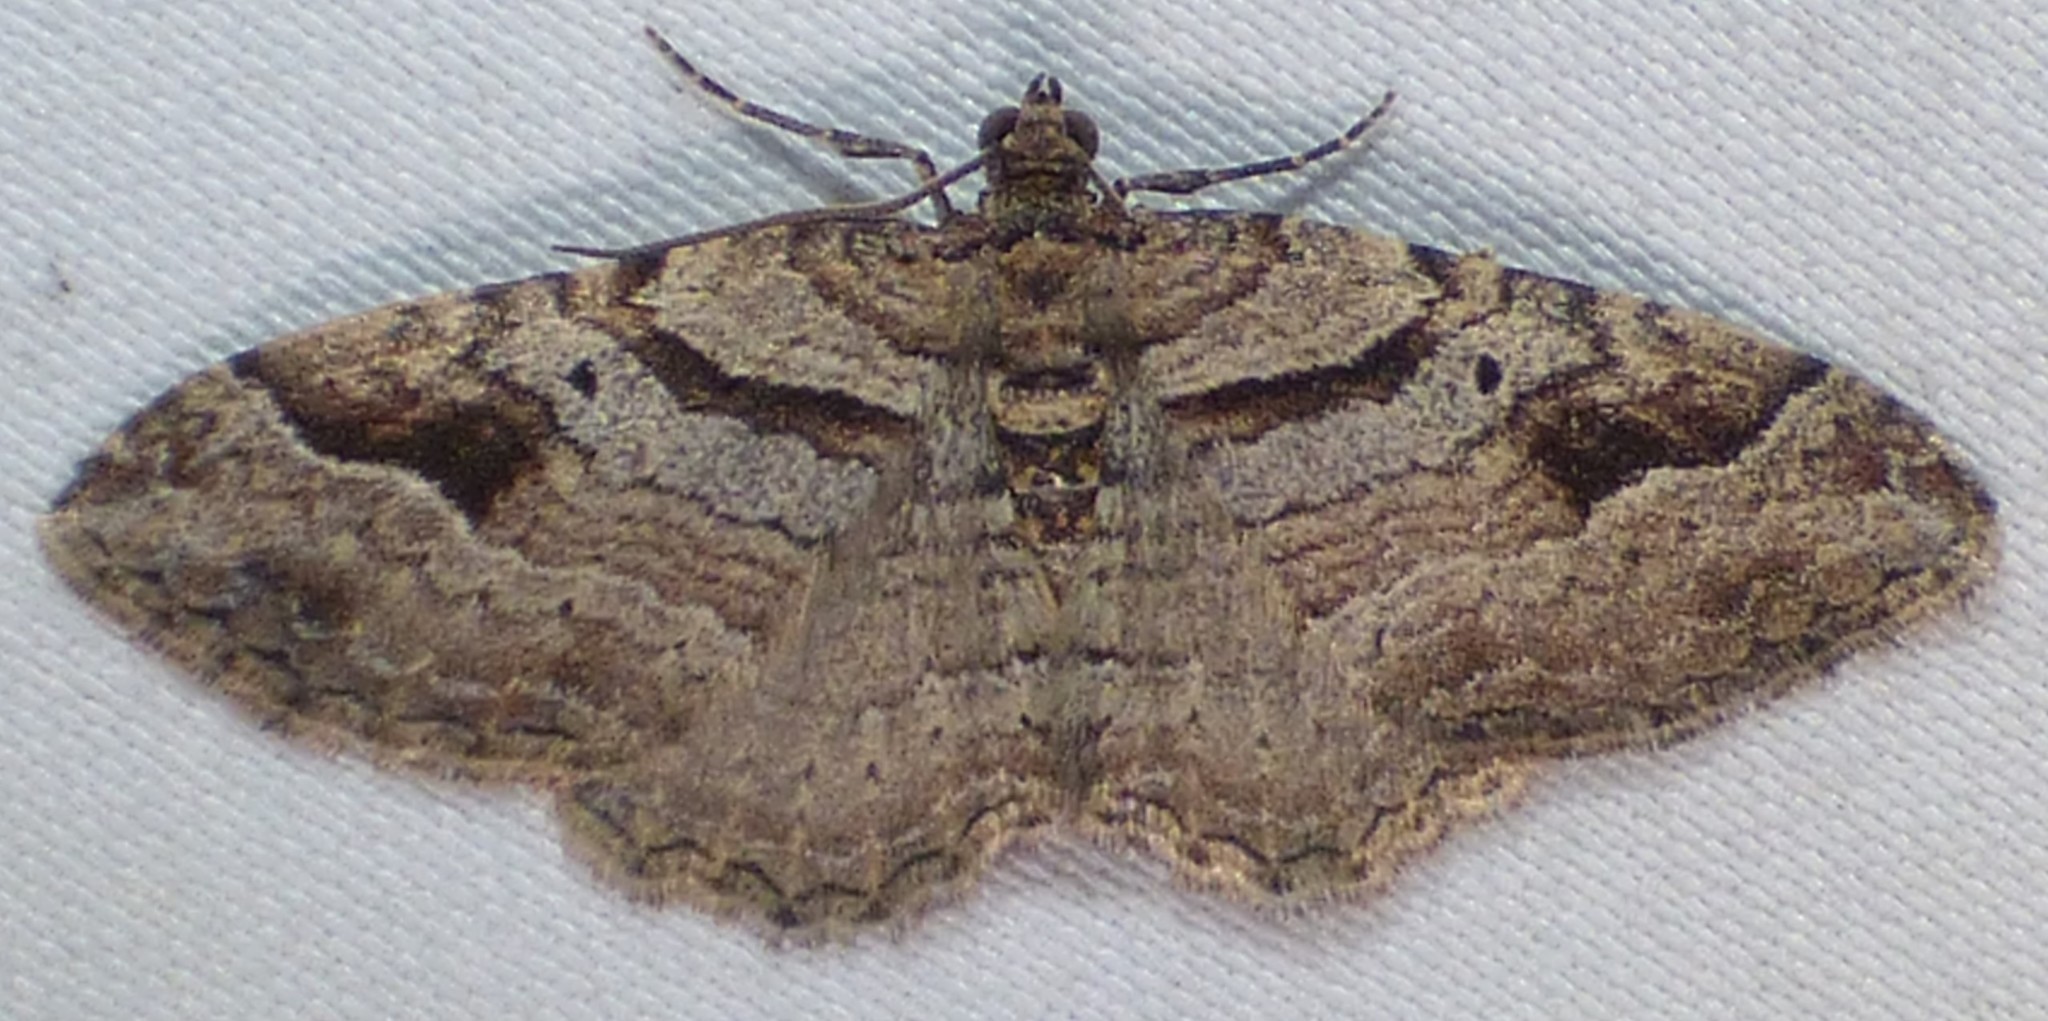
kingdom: Animalia
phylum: Arthropoda
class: Insecta
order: Lepidoptera
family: Geometridae
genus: Costaconvexa
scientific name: Costaconvexa centrostrigaria
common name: Bent-line carpet
